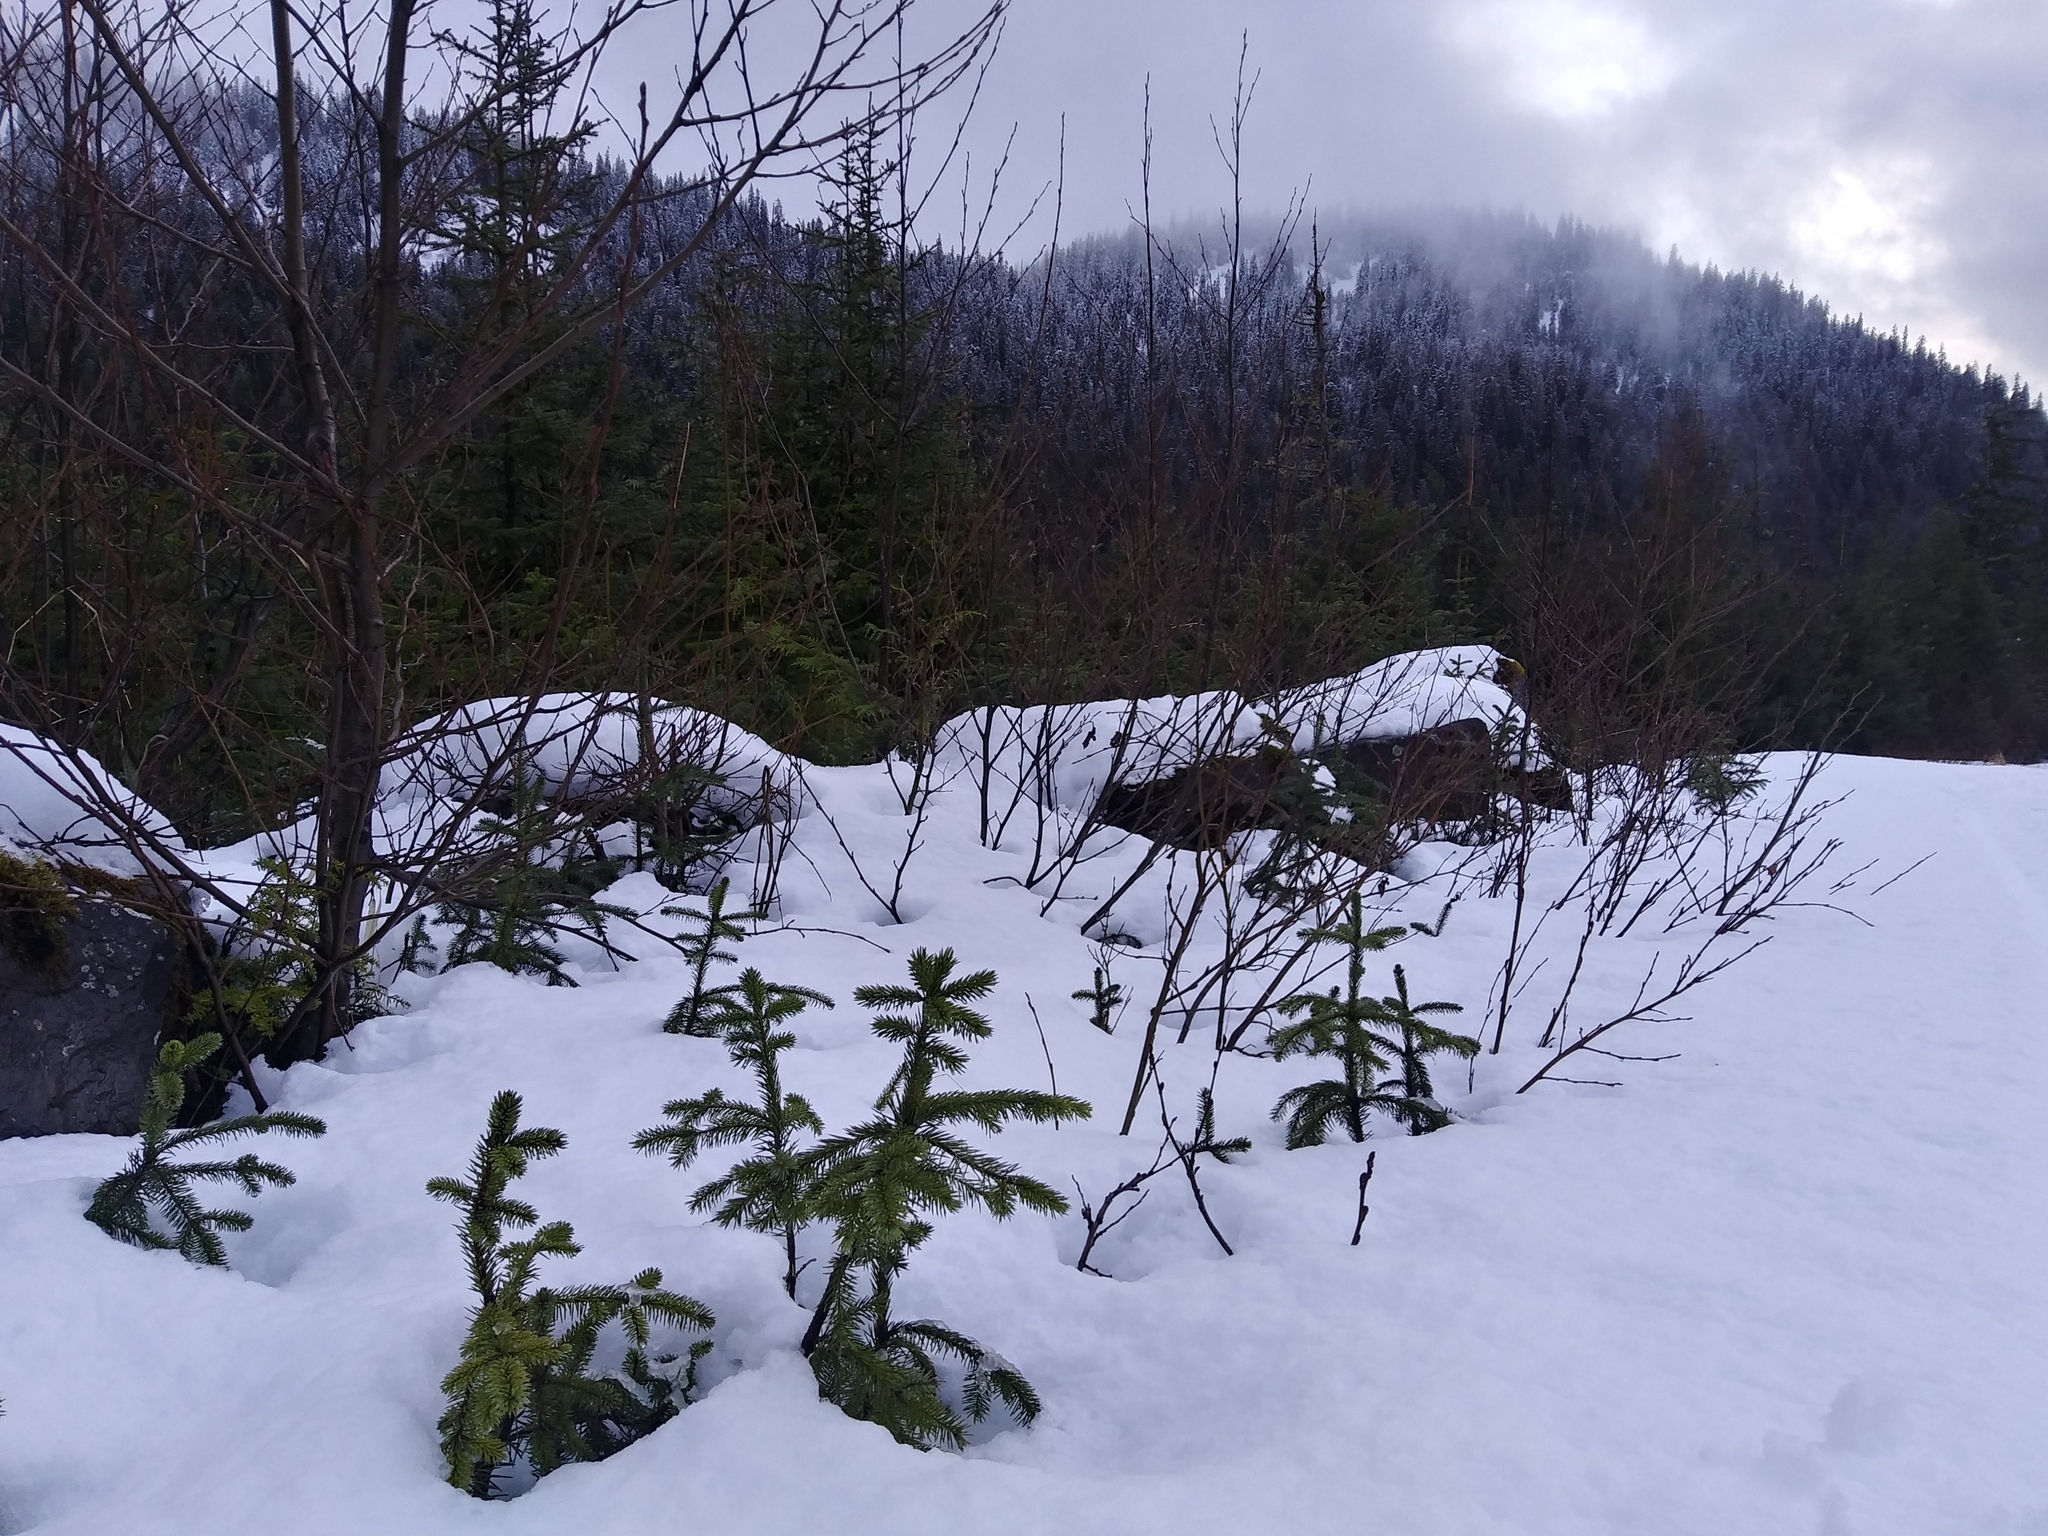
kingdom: Plantae
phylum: Tracheophyta
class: Pinopsida
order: Pinales
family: Pinaceae
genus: Picea
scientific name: Picea sitchensis
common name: Sitka spruce
